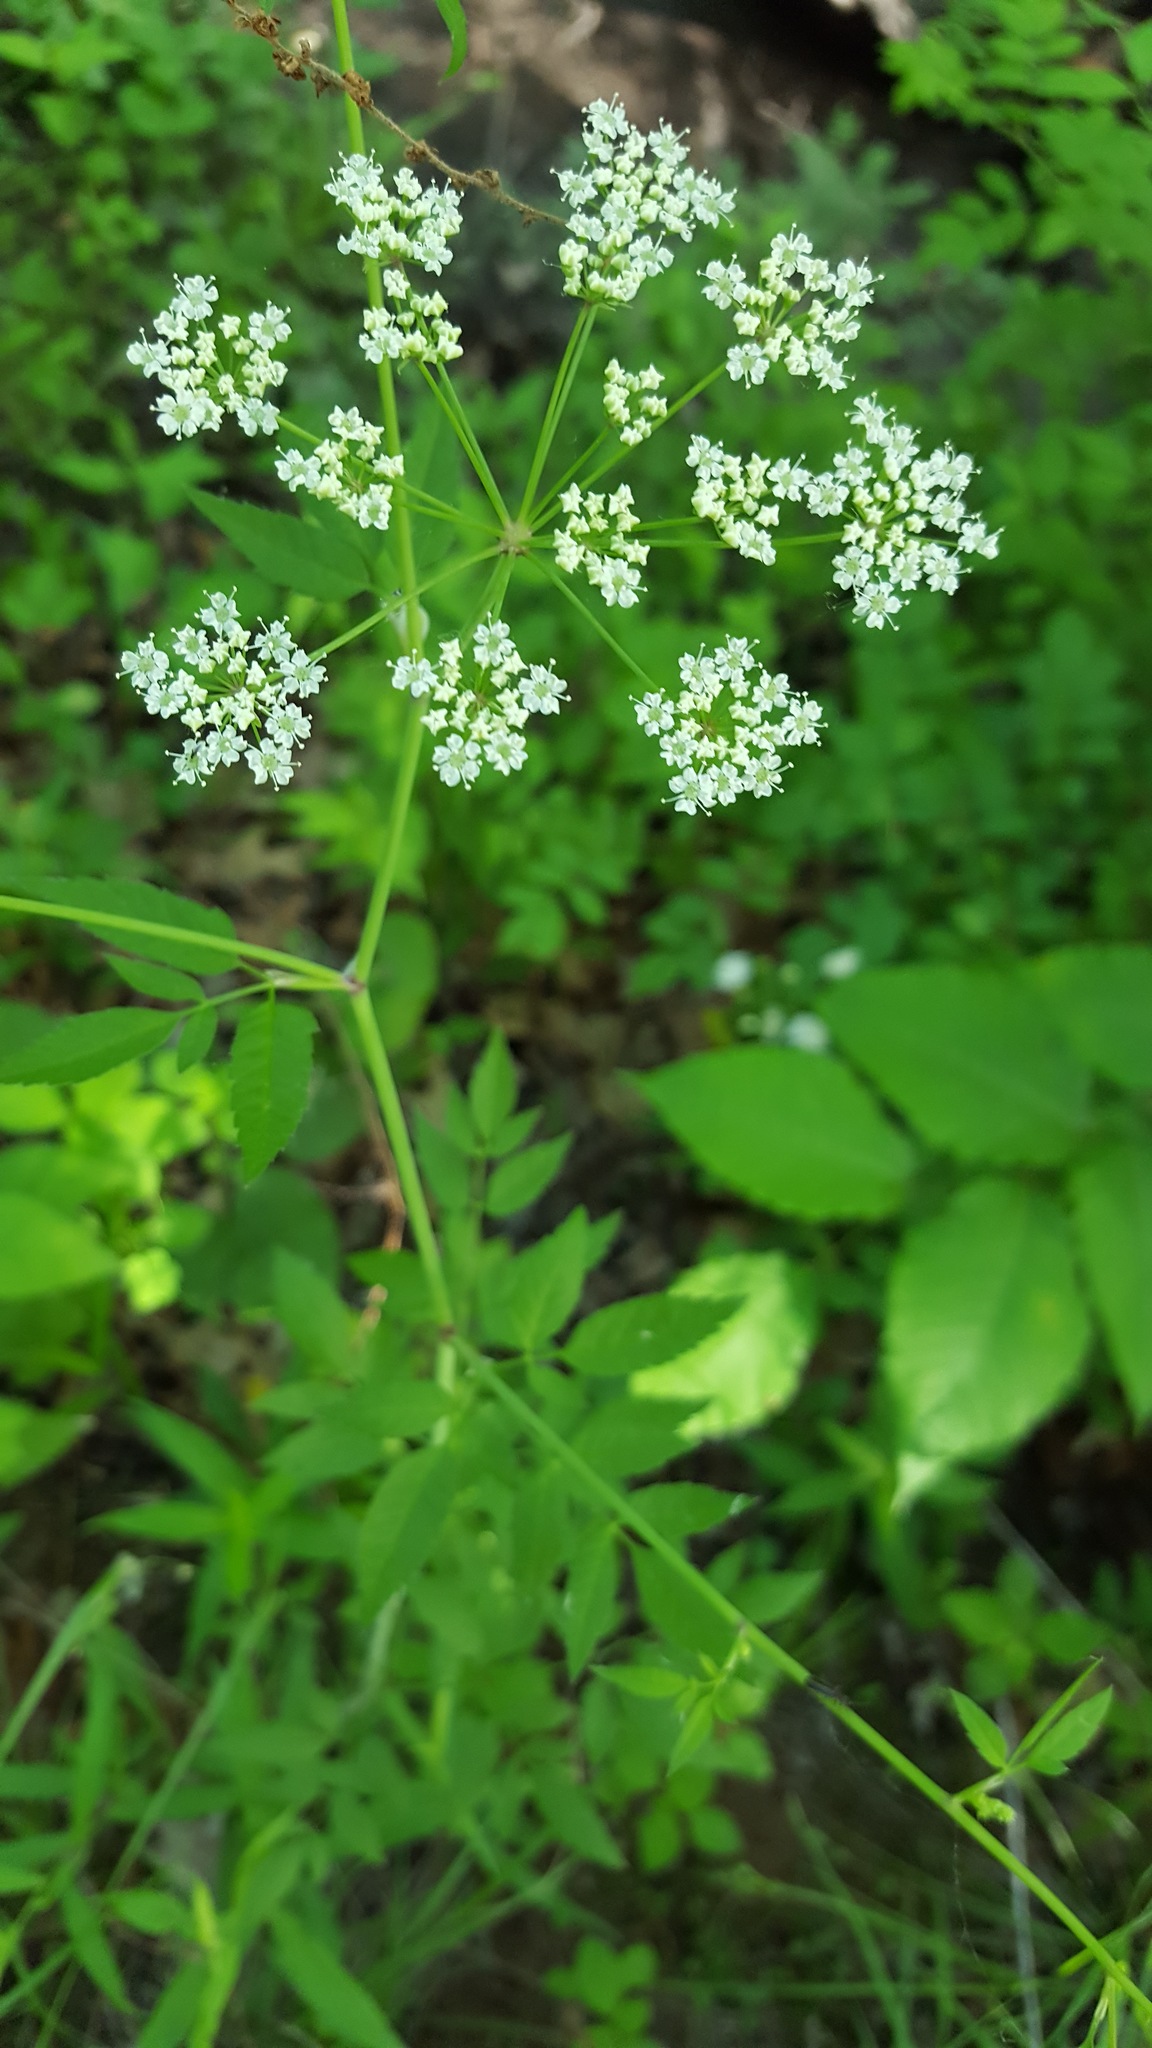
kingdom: Plantae
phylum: Tracheophyta
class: Magnoliopsida
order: Apiales
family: Apiaceae
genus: Cicuta
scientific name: Cicuta maculata
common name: Spotted cowbane
